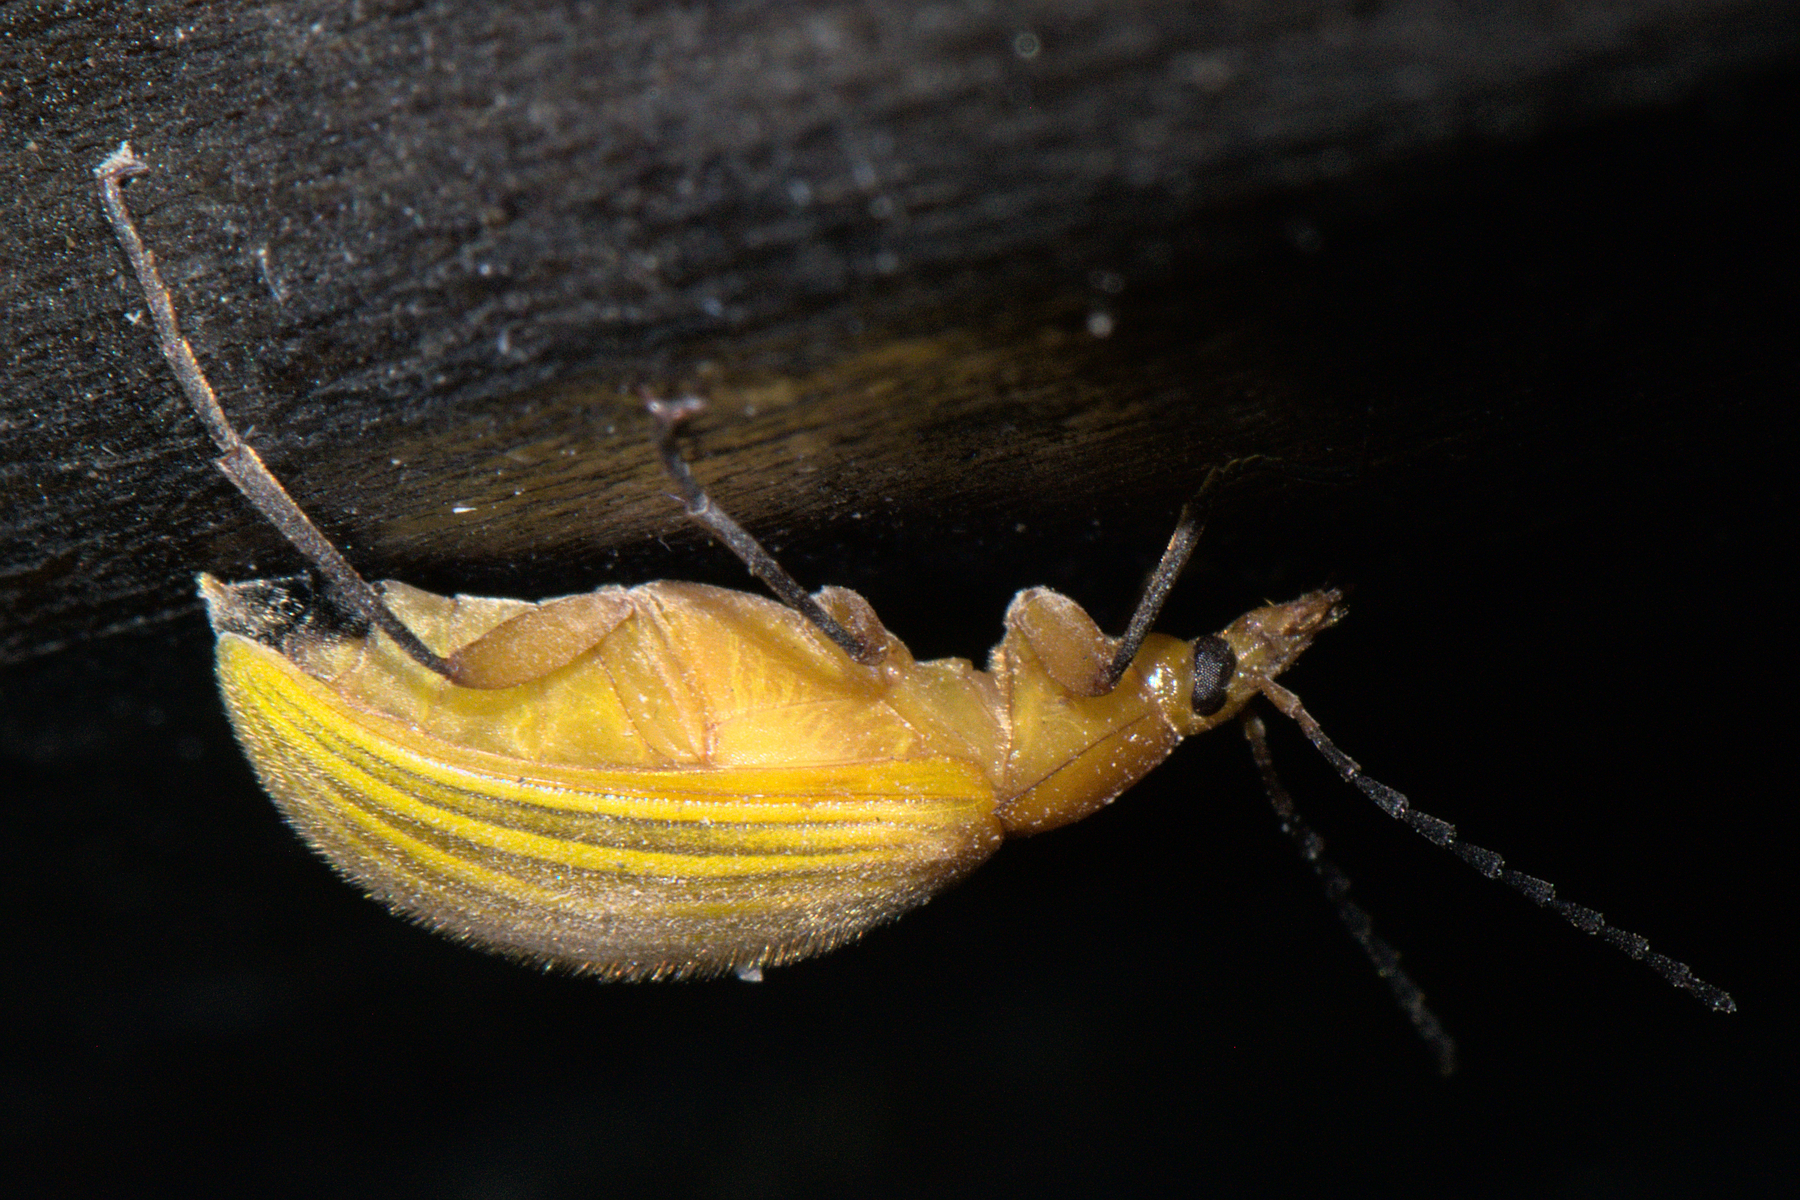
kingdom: Animalia
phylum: Arthropoda
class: Insecta
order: Coleoptera
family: Tenebrionidae
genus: Cistelomorpha
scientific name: Cistelomorpha
